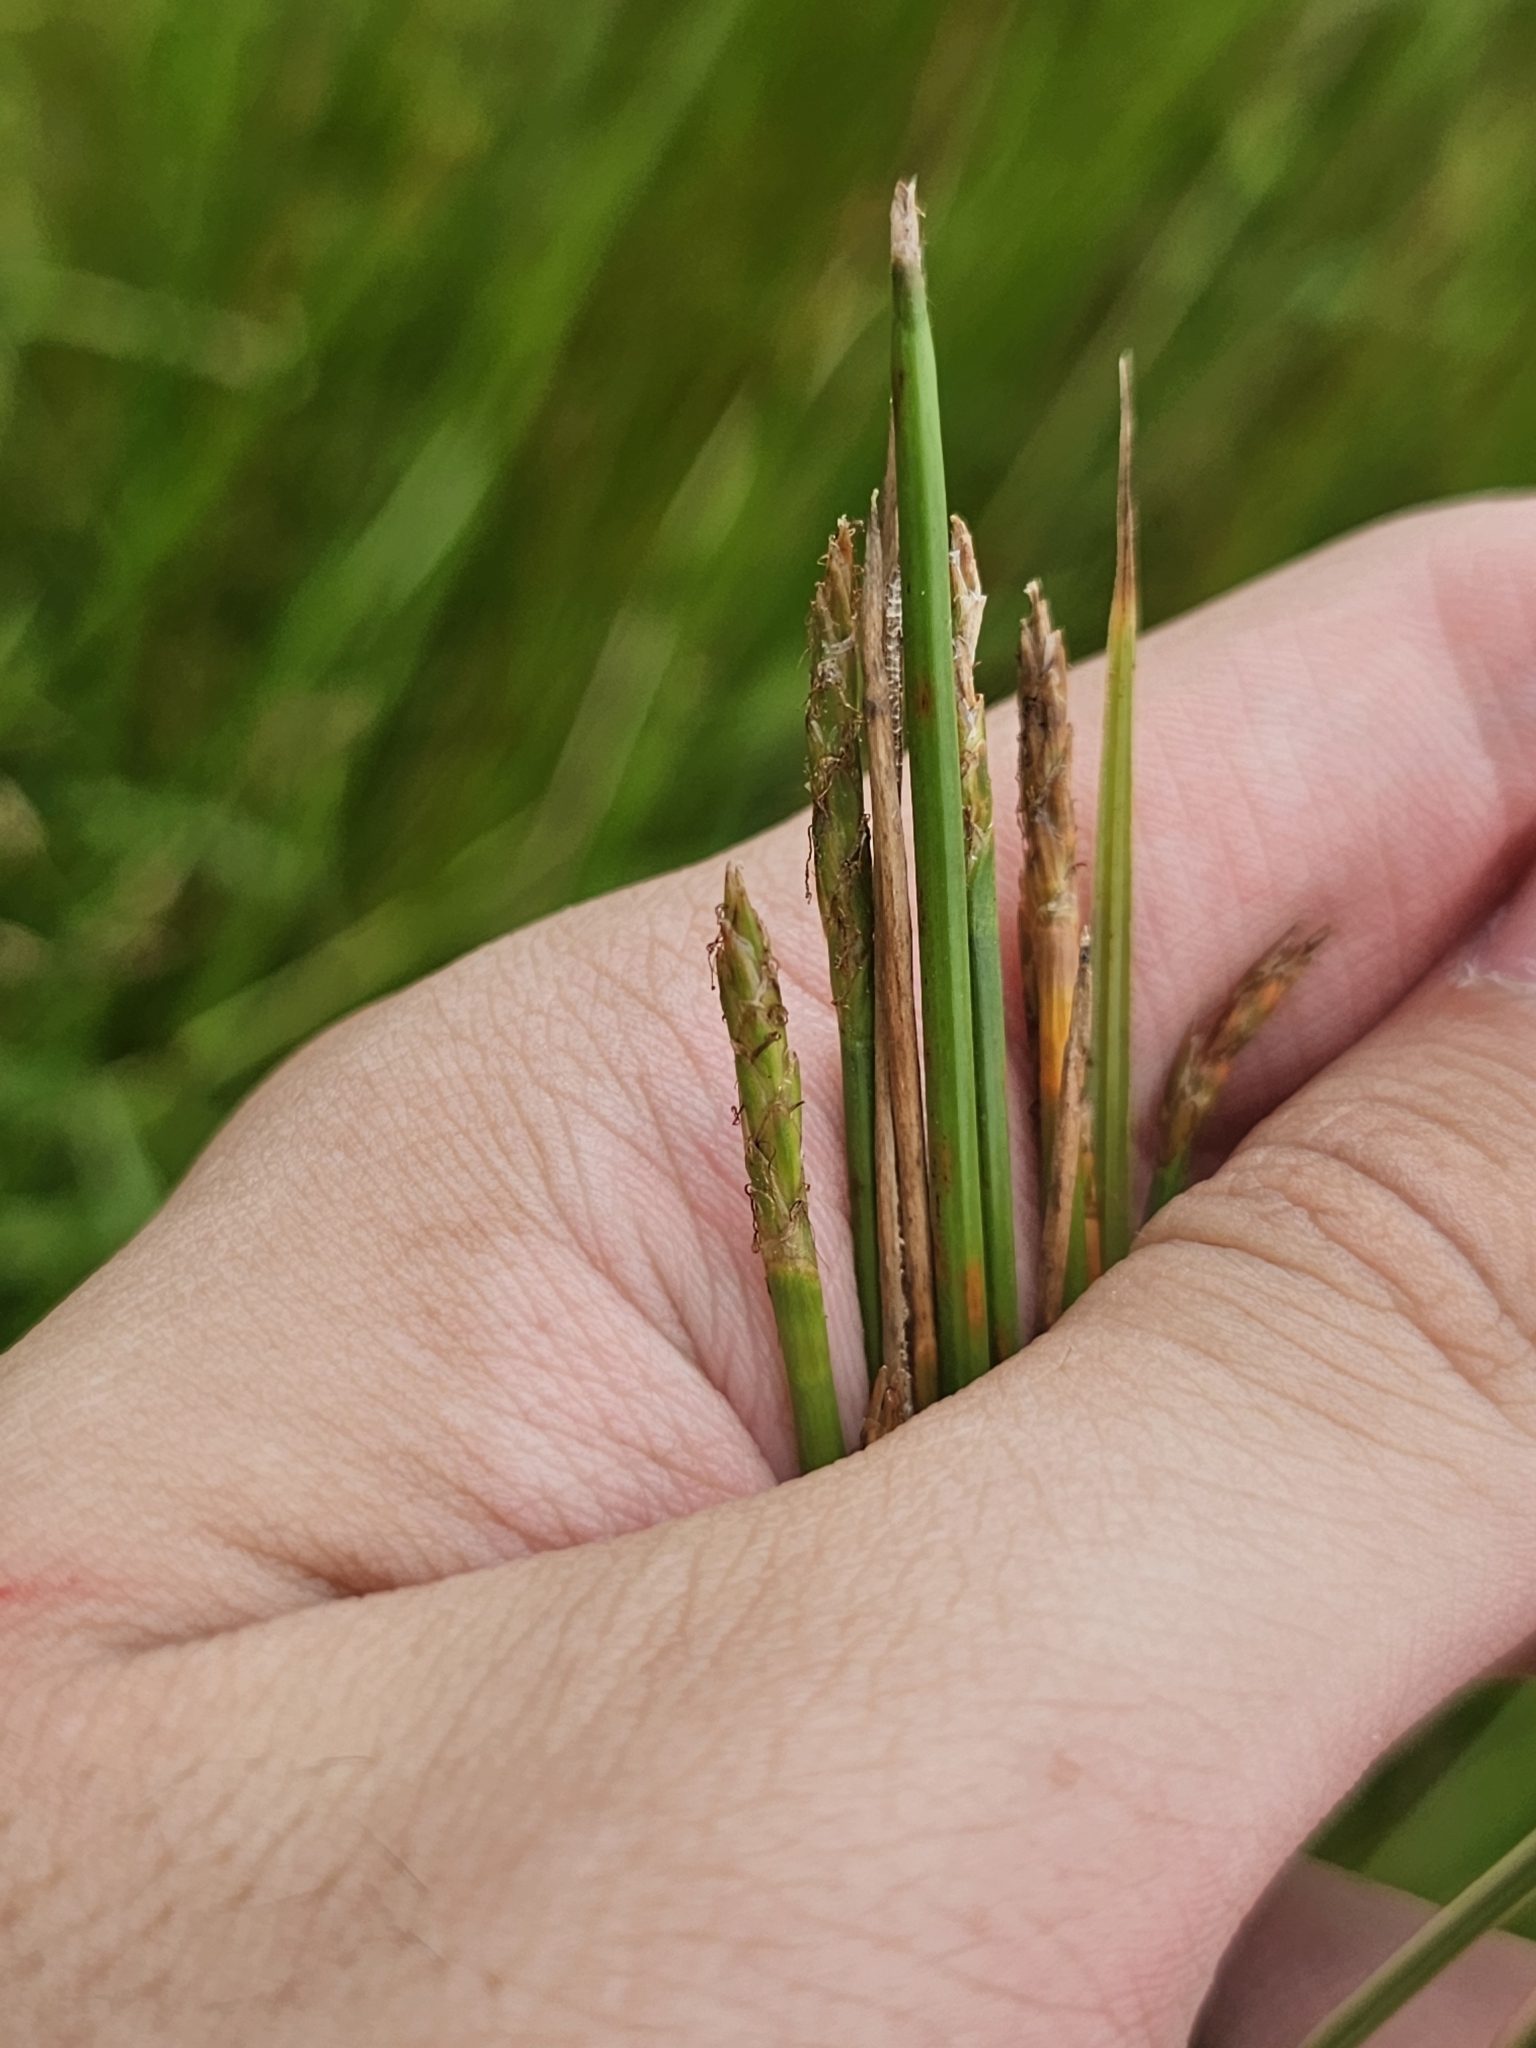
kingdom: Plantae
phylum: Tracheophyta
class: Liliopsida
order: Poales
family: Cyperaceae
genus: Eleocharis
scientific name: Eleocharis ochrostachys
